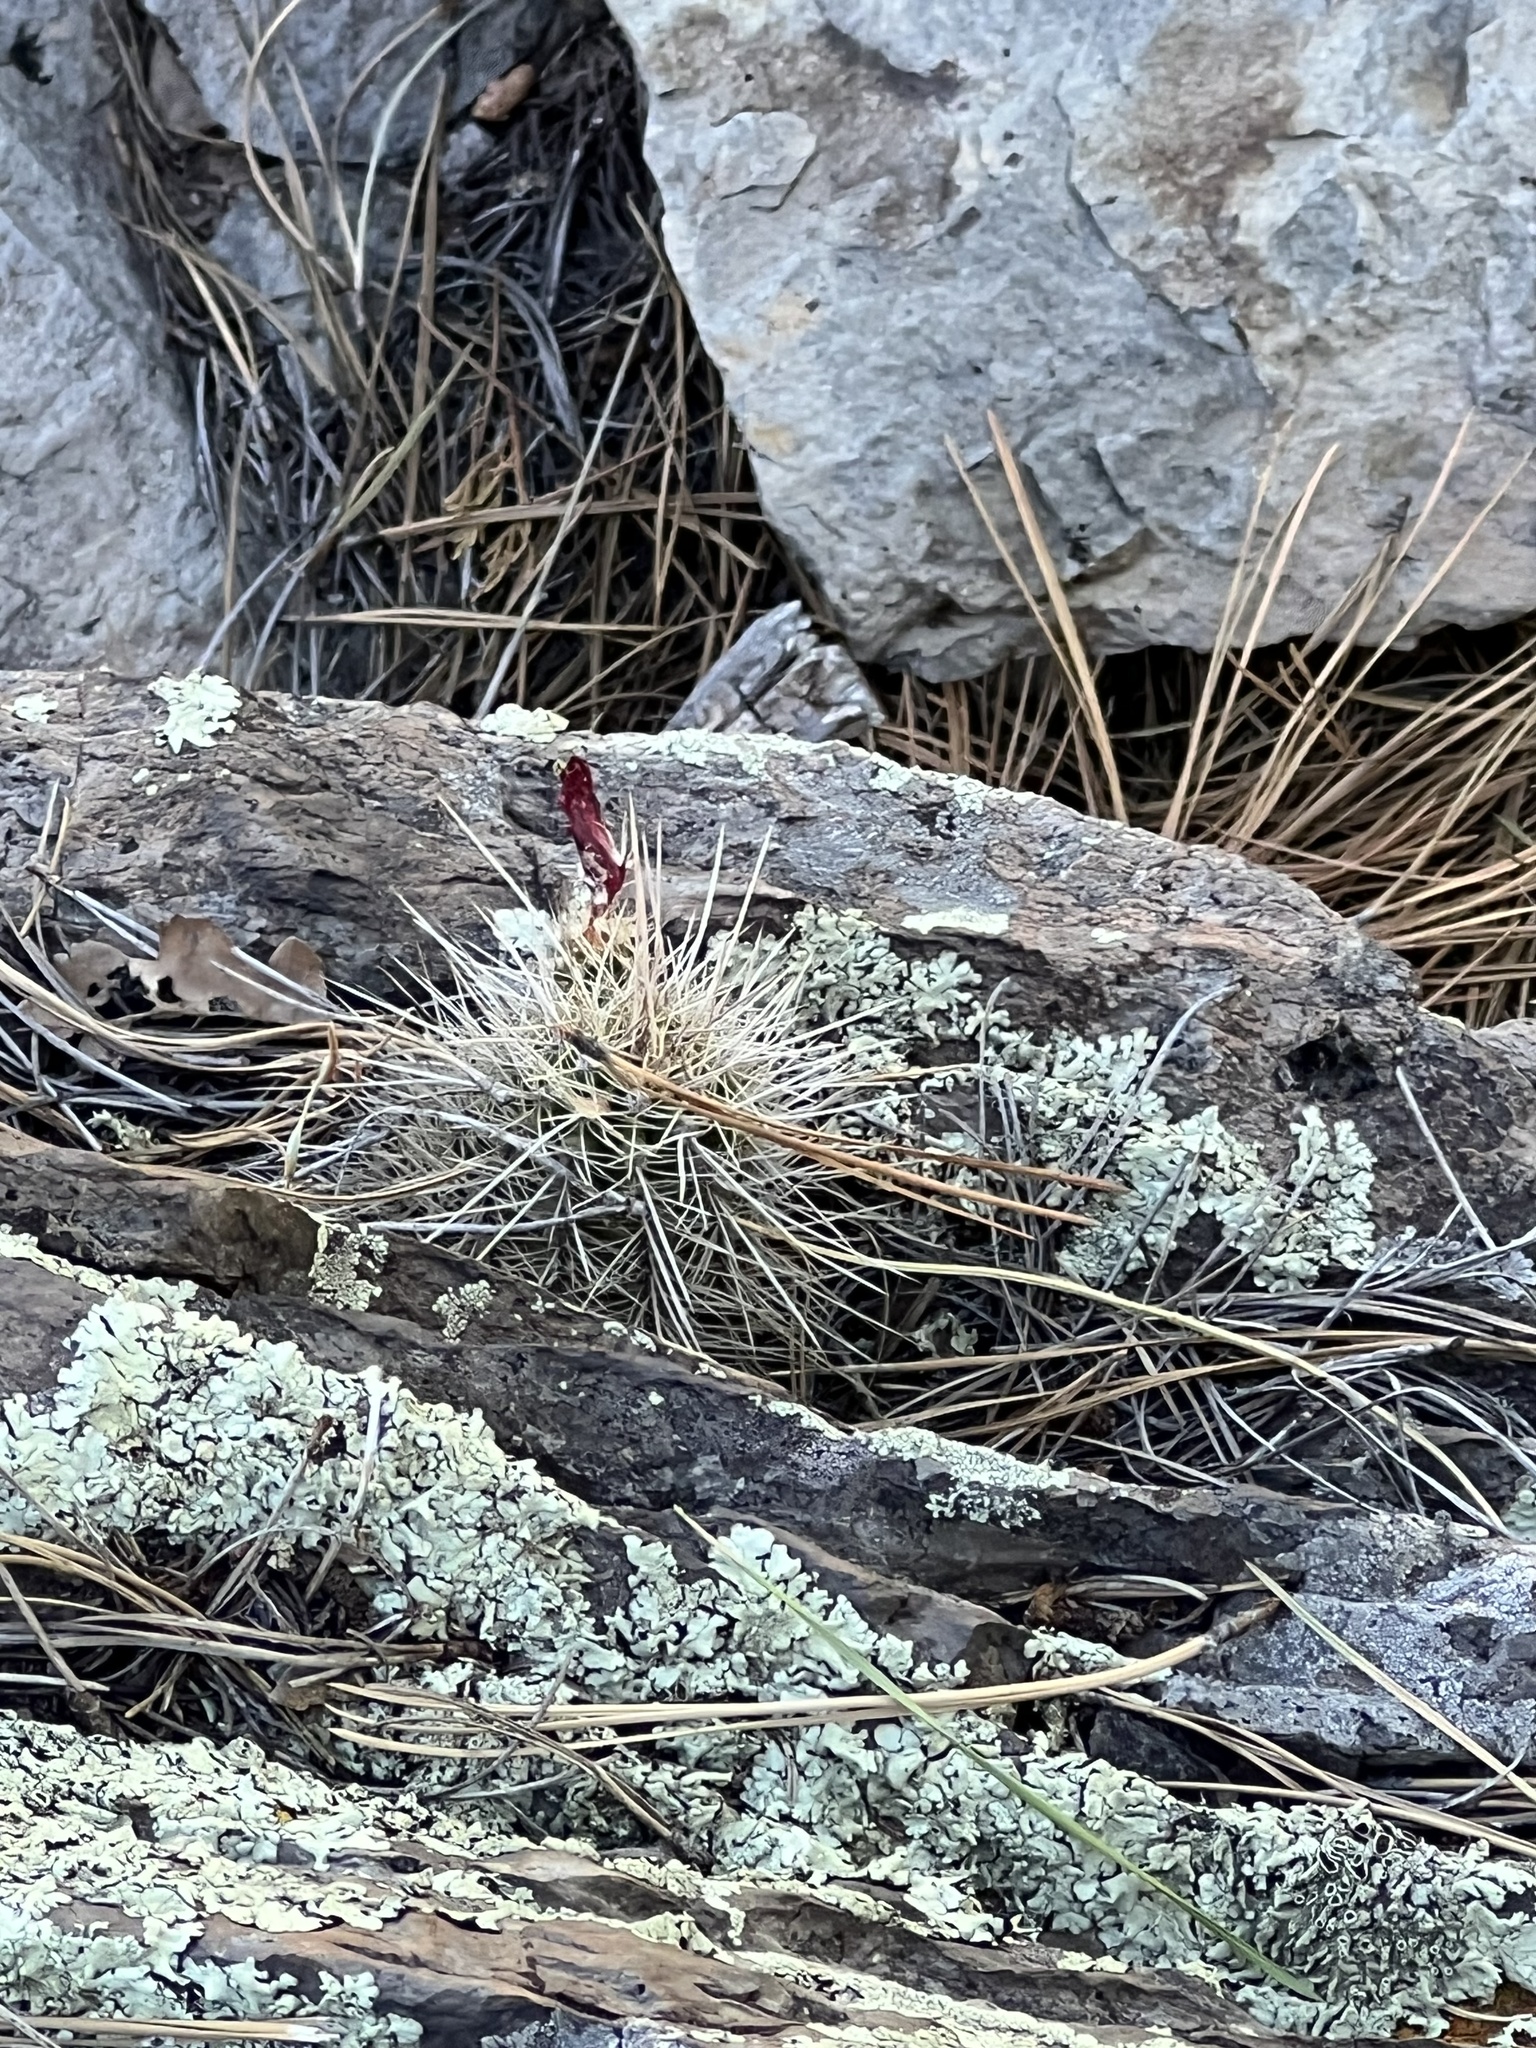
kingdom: Plantae
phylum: Tracheophyta
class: Magnoliopsida
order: Caryophyllales
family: Cactaceae
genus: Echinocereus
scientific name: Echinocereus bakeri
